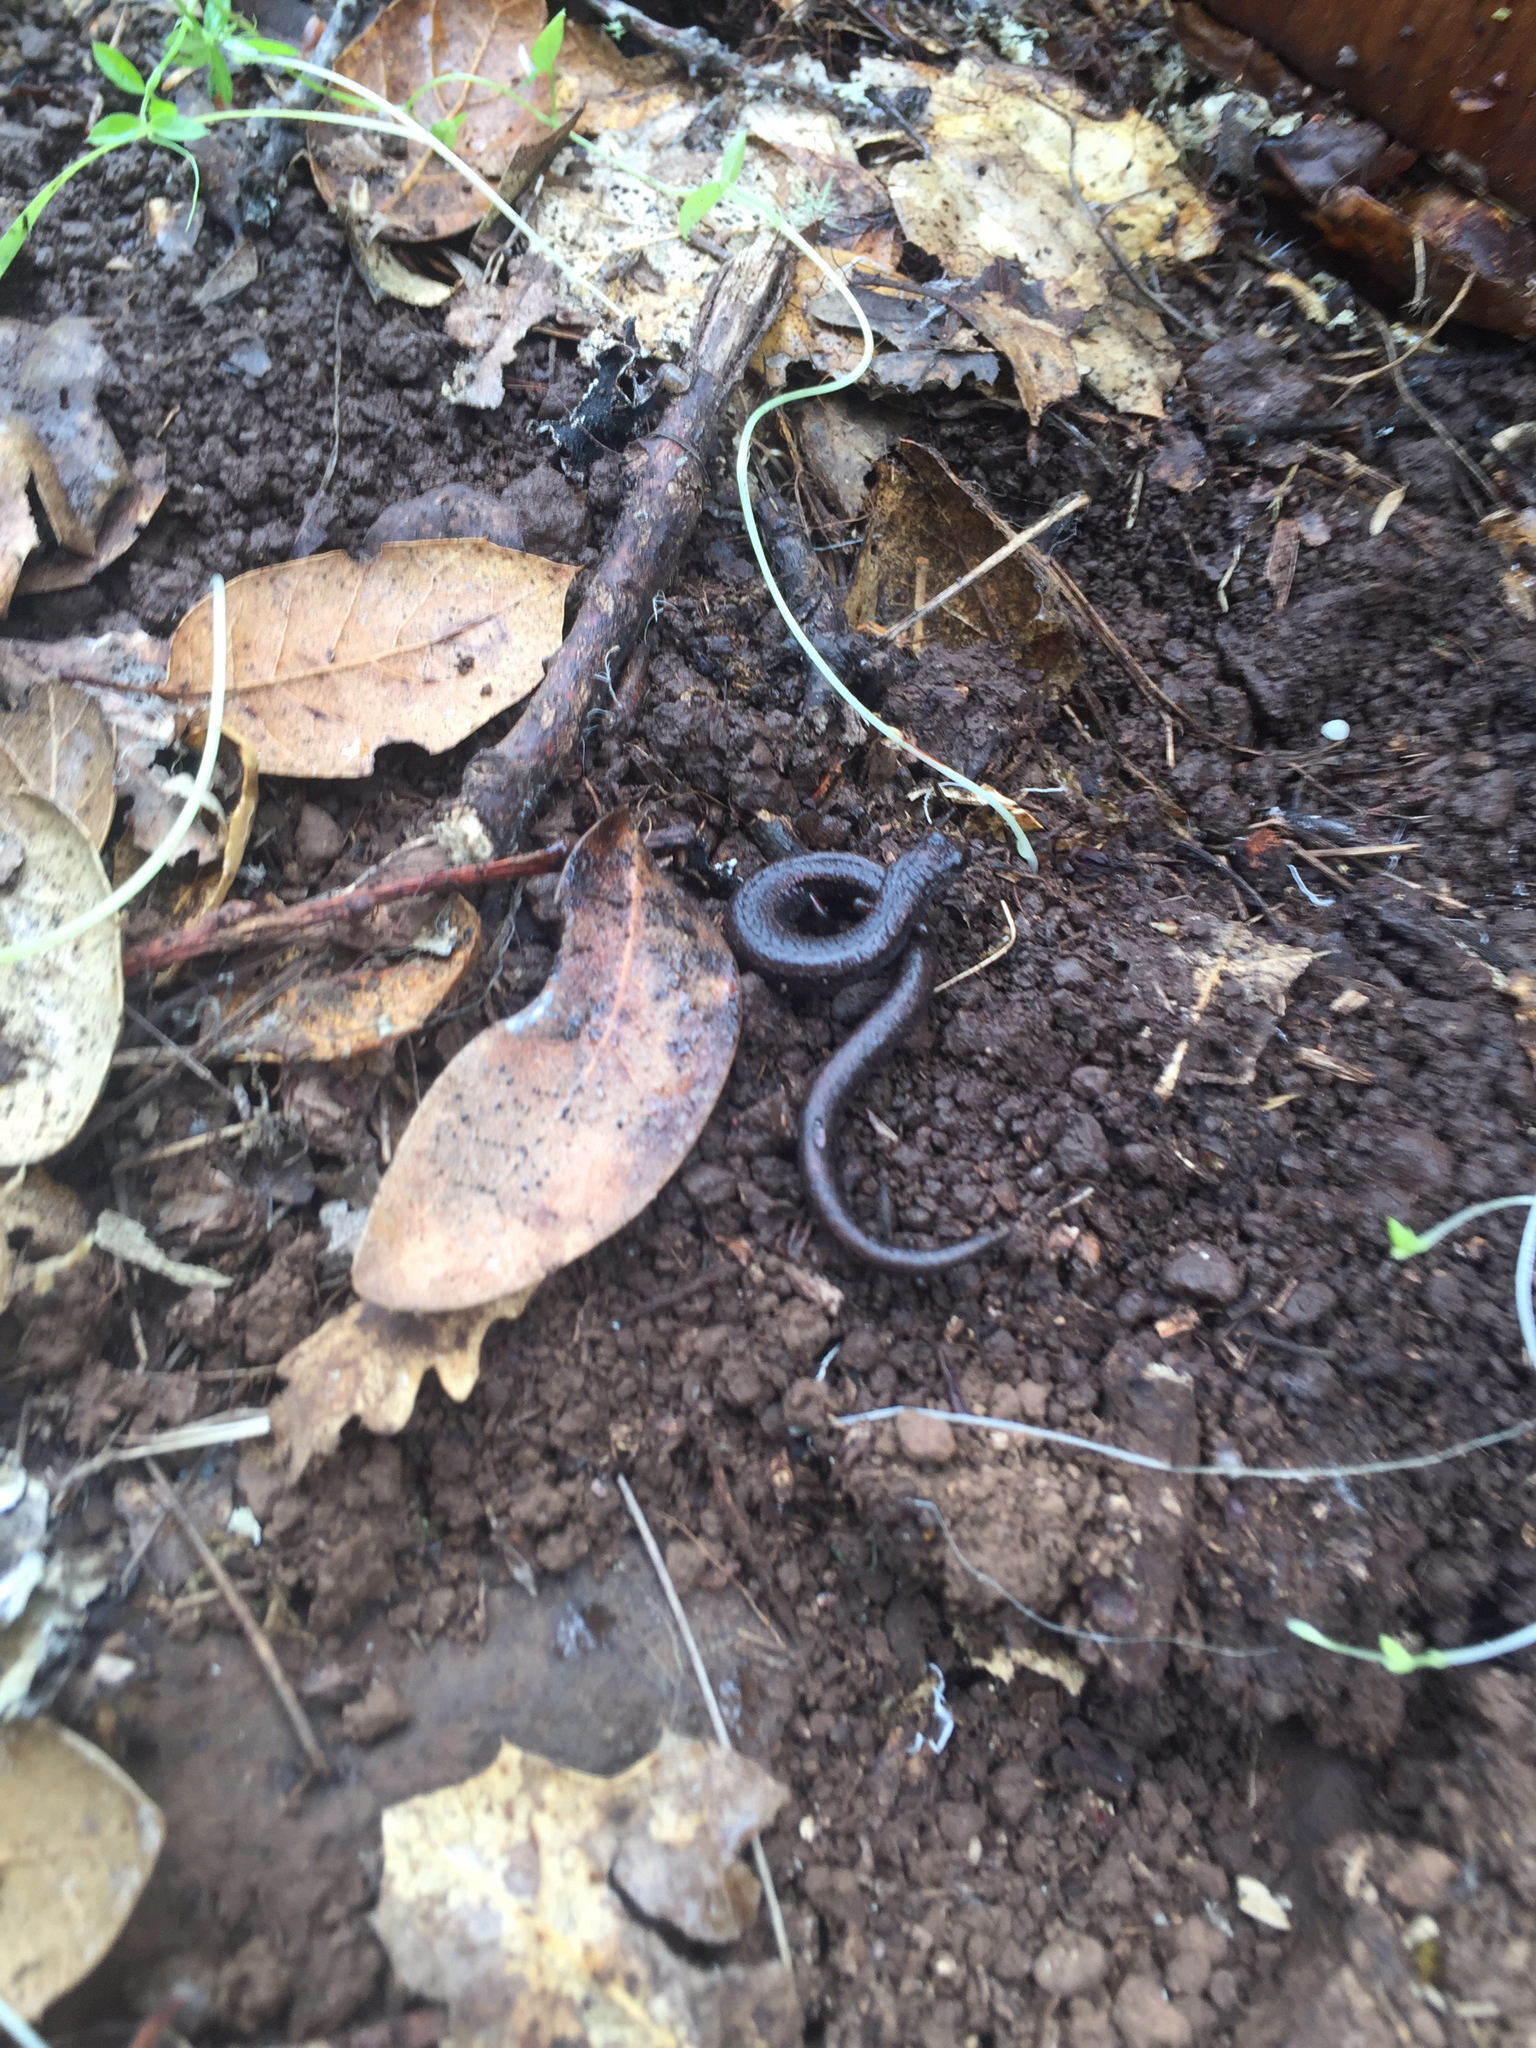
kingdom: Animalia
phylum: Chordata
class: Amphibia
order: Caudata
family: Plethodontidae
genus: Batrachoseps
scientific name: Batrachoseps attenuatus
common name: California slender salamander
